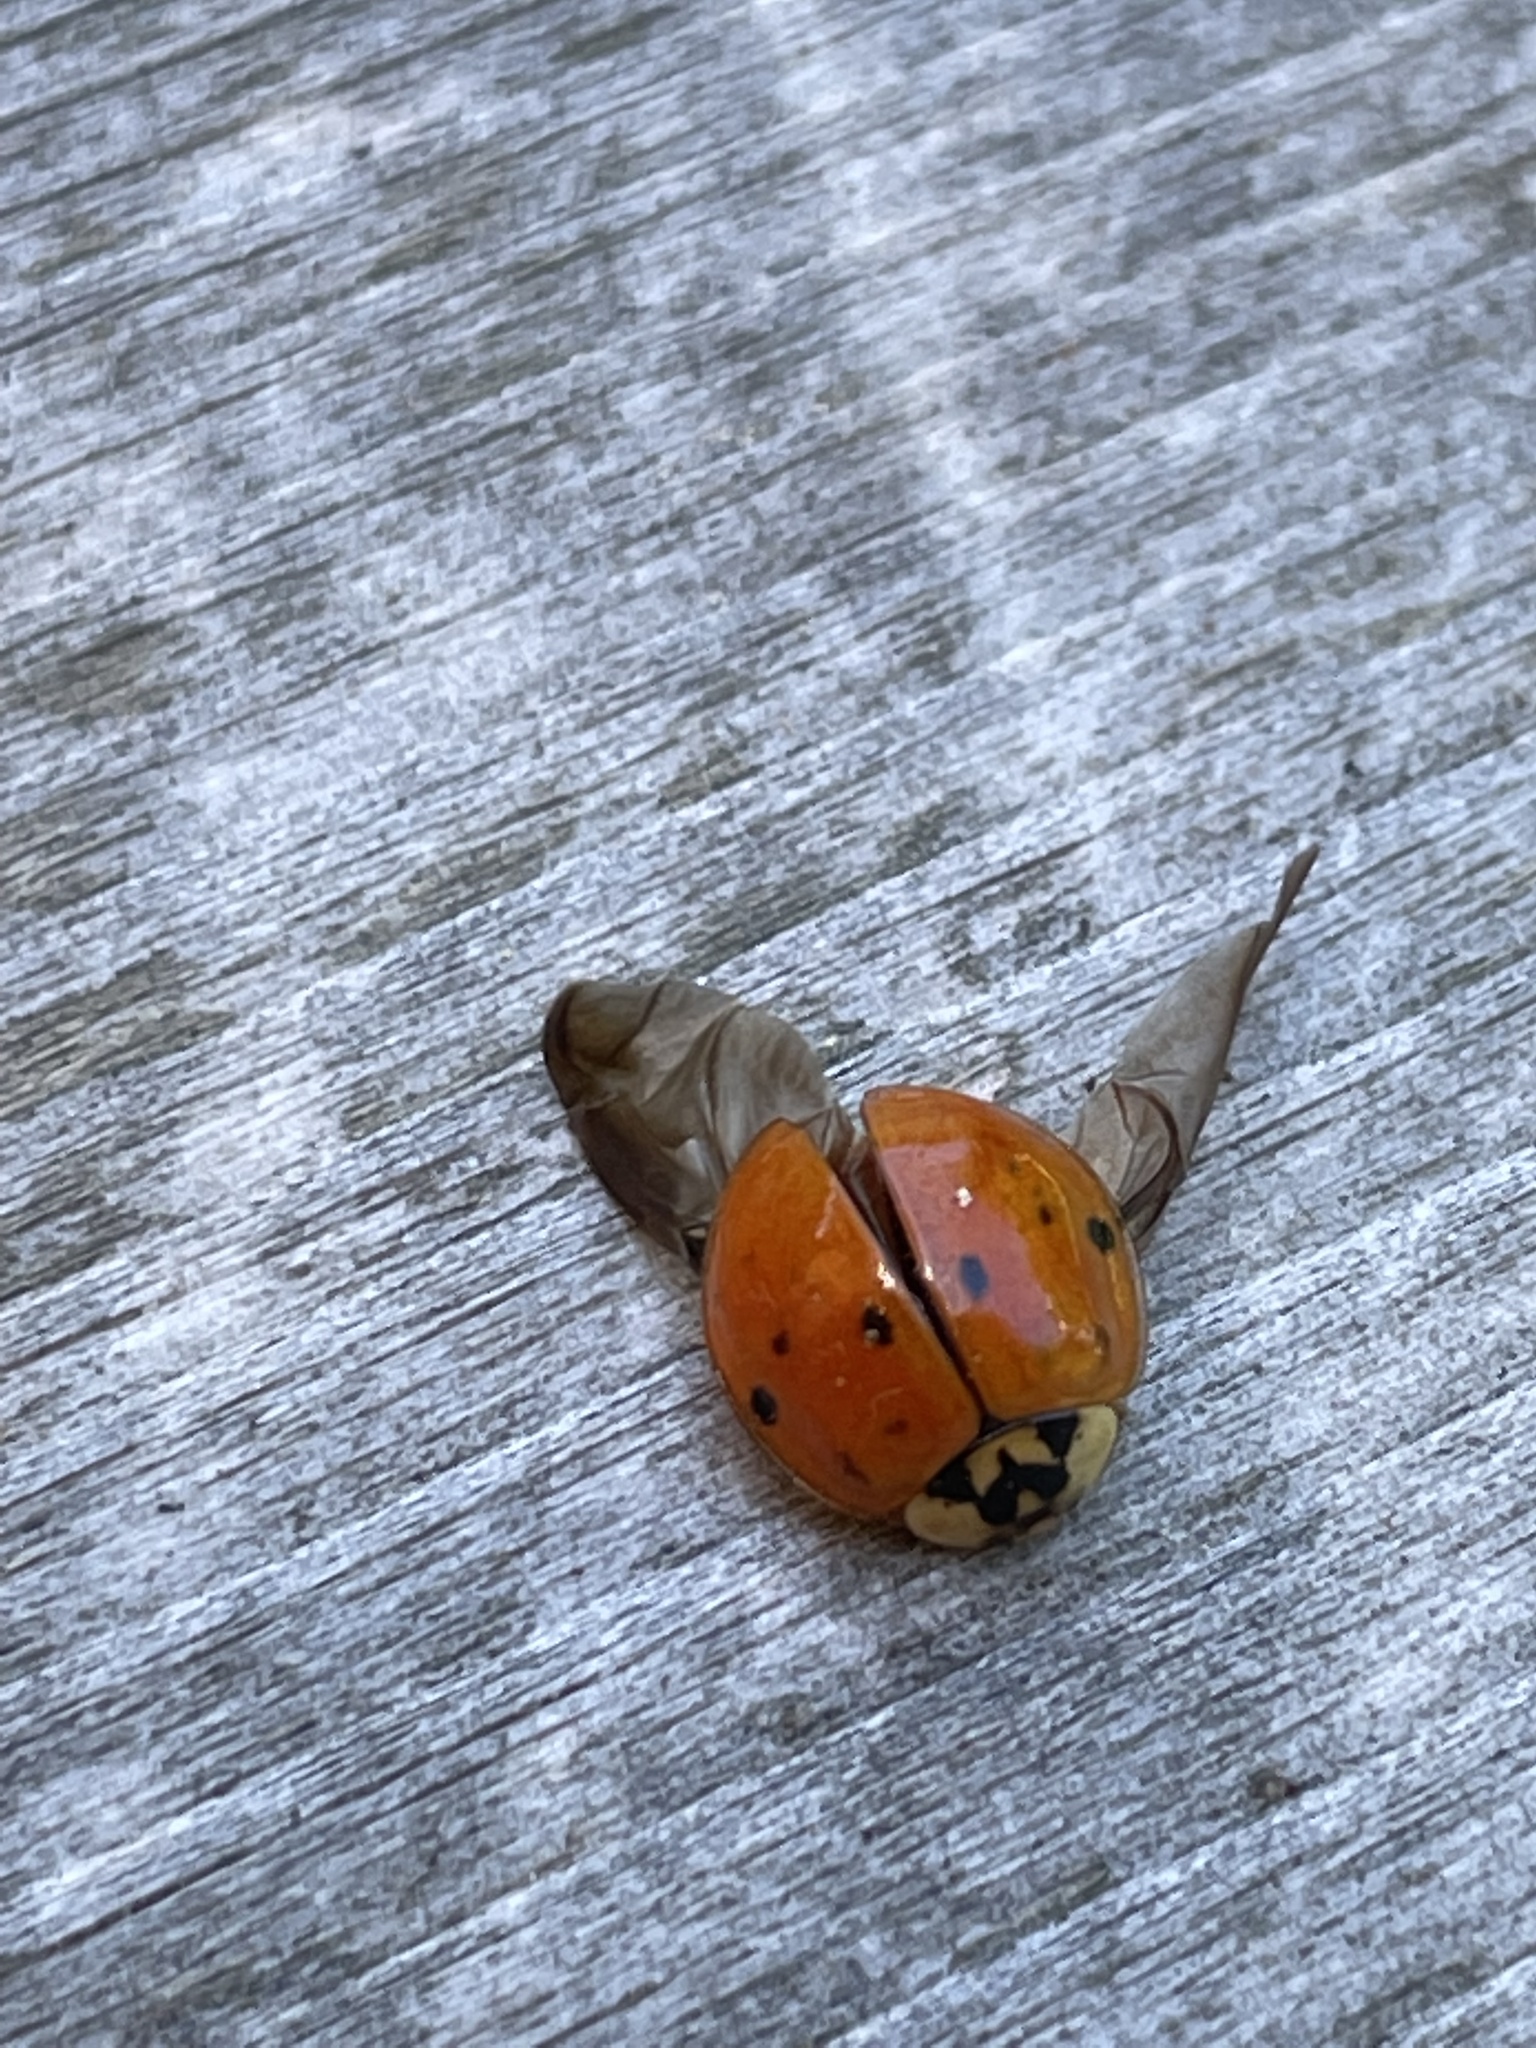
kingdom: Animalia
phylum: Arthropoda
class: Insecta
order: Coleoptera
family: Coccinellidae
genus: Harmonia
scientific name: Harmonia axyridis
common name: Harlequin ladybird
